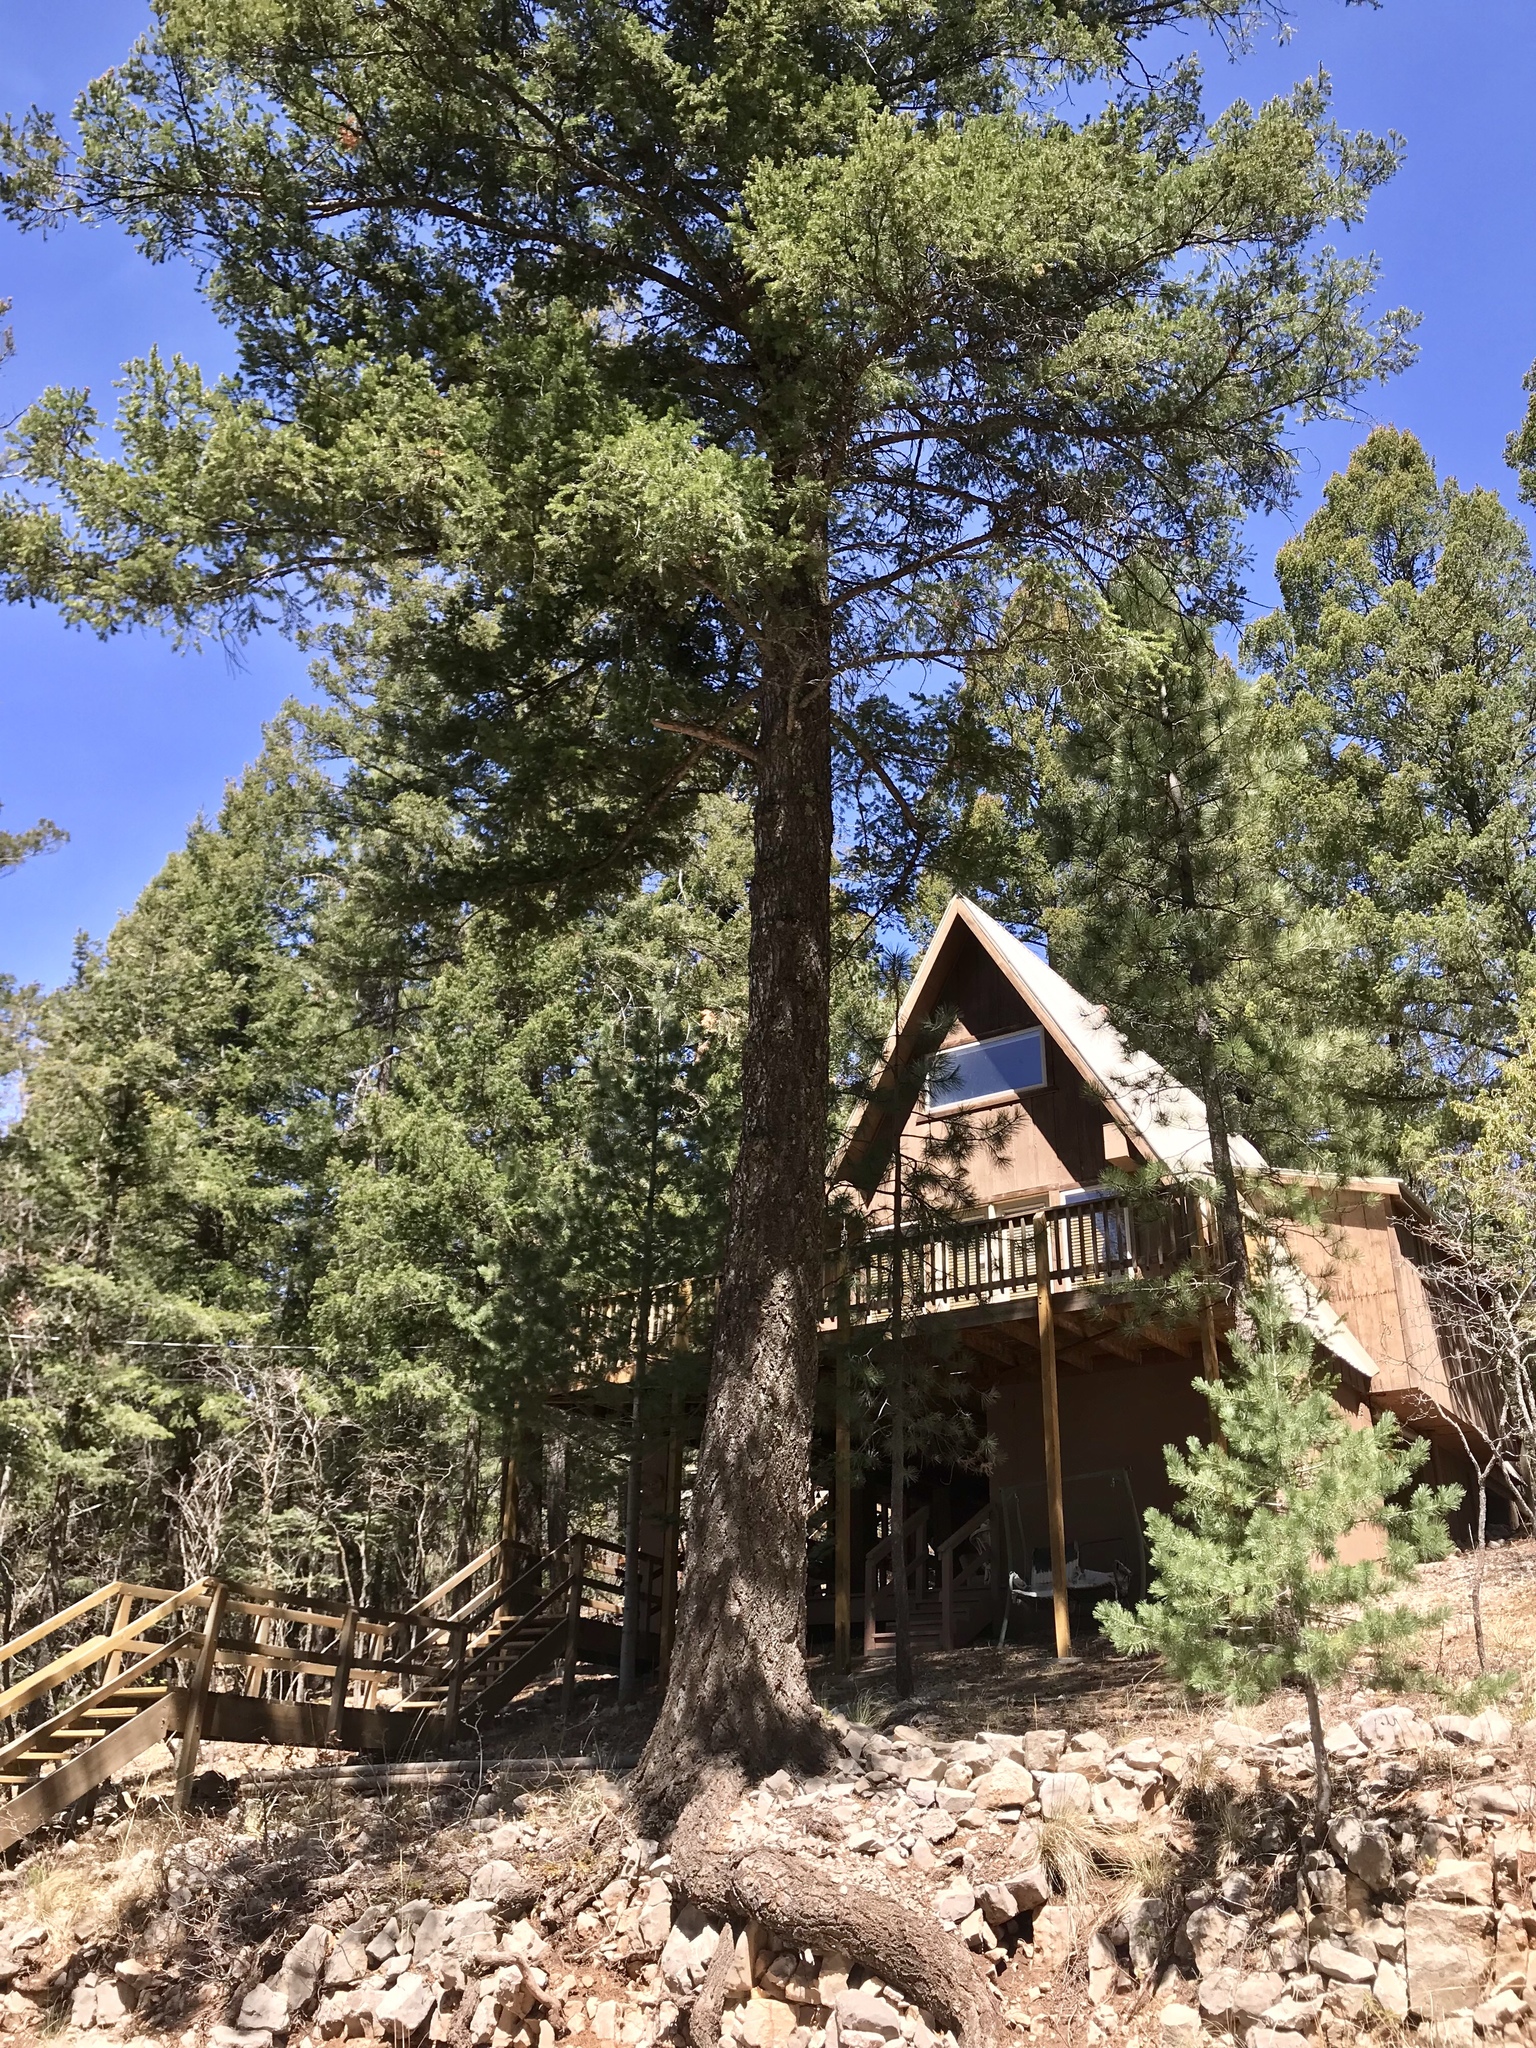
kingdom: Plantae
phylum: Tracheophyta
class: Pinopsida
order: Pinales
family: Pinaceae
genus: Pseudotsuga
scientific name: Pseudotsuga menziesii
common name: Douglas fir
